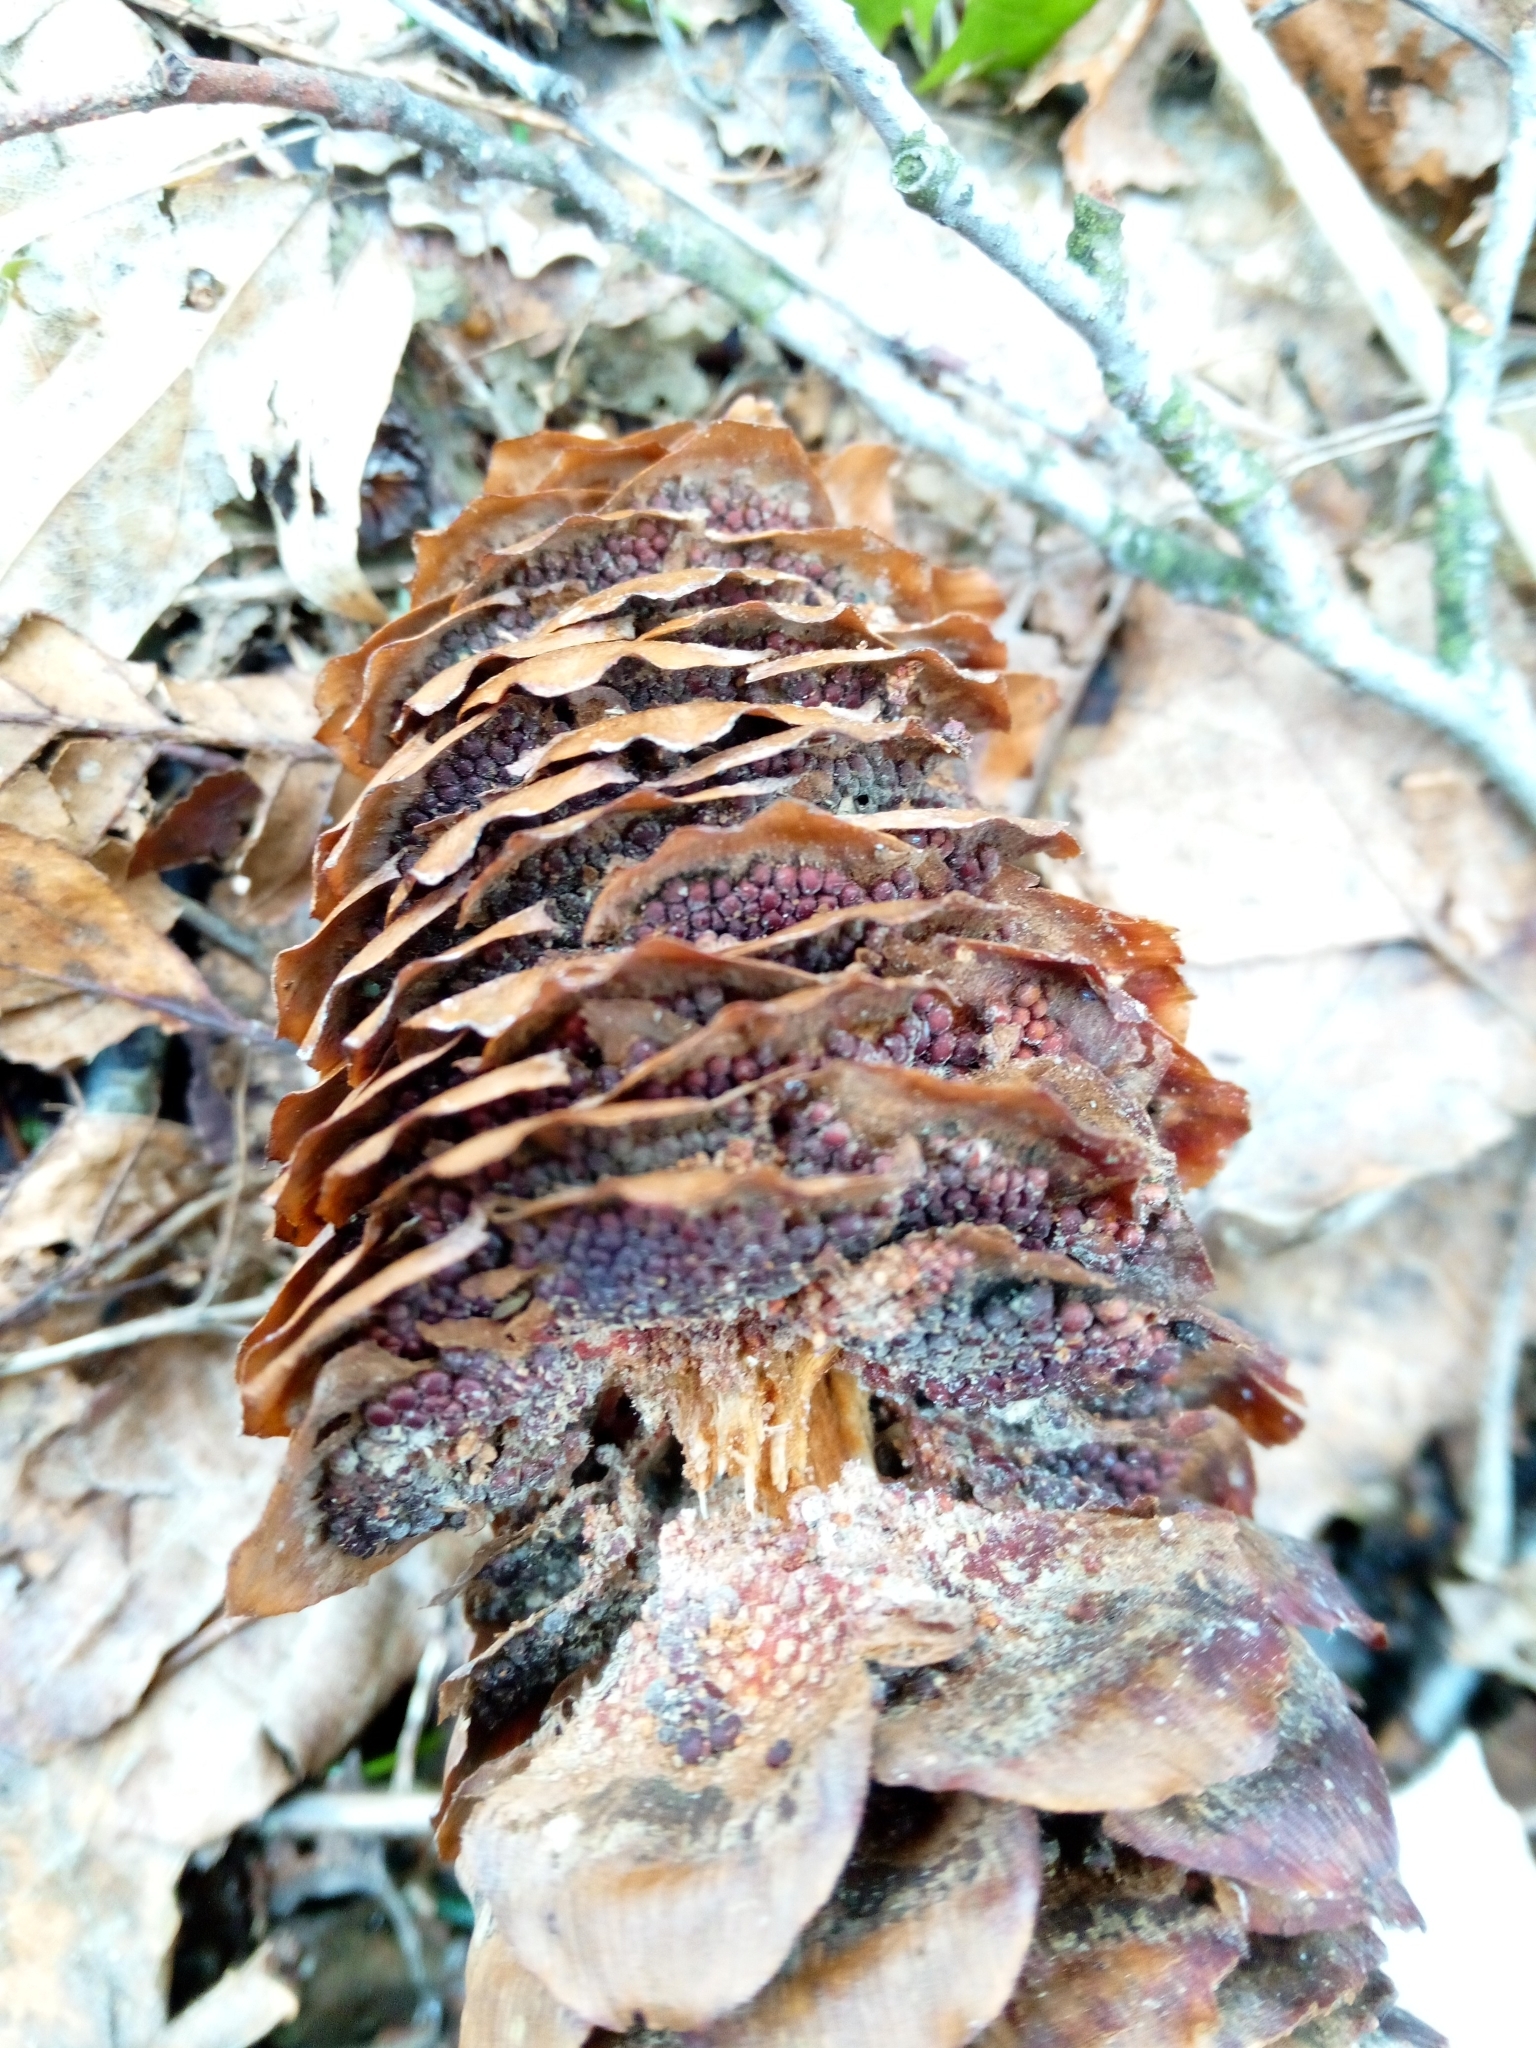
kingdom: Fungi
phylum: Basidiomycota
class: Pucciniomycetes
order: Pucciniales
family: Pucciniastraceae
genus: Thekopsora
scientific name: Thekopsora areolata
